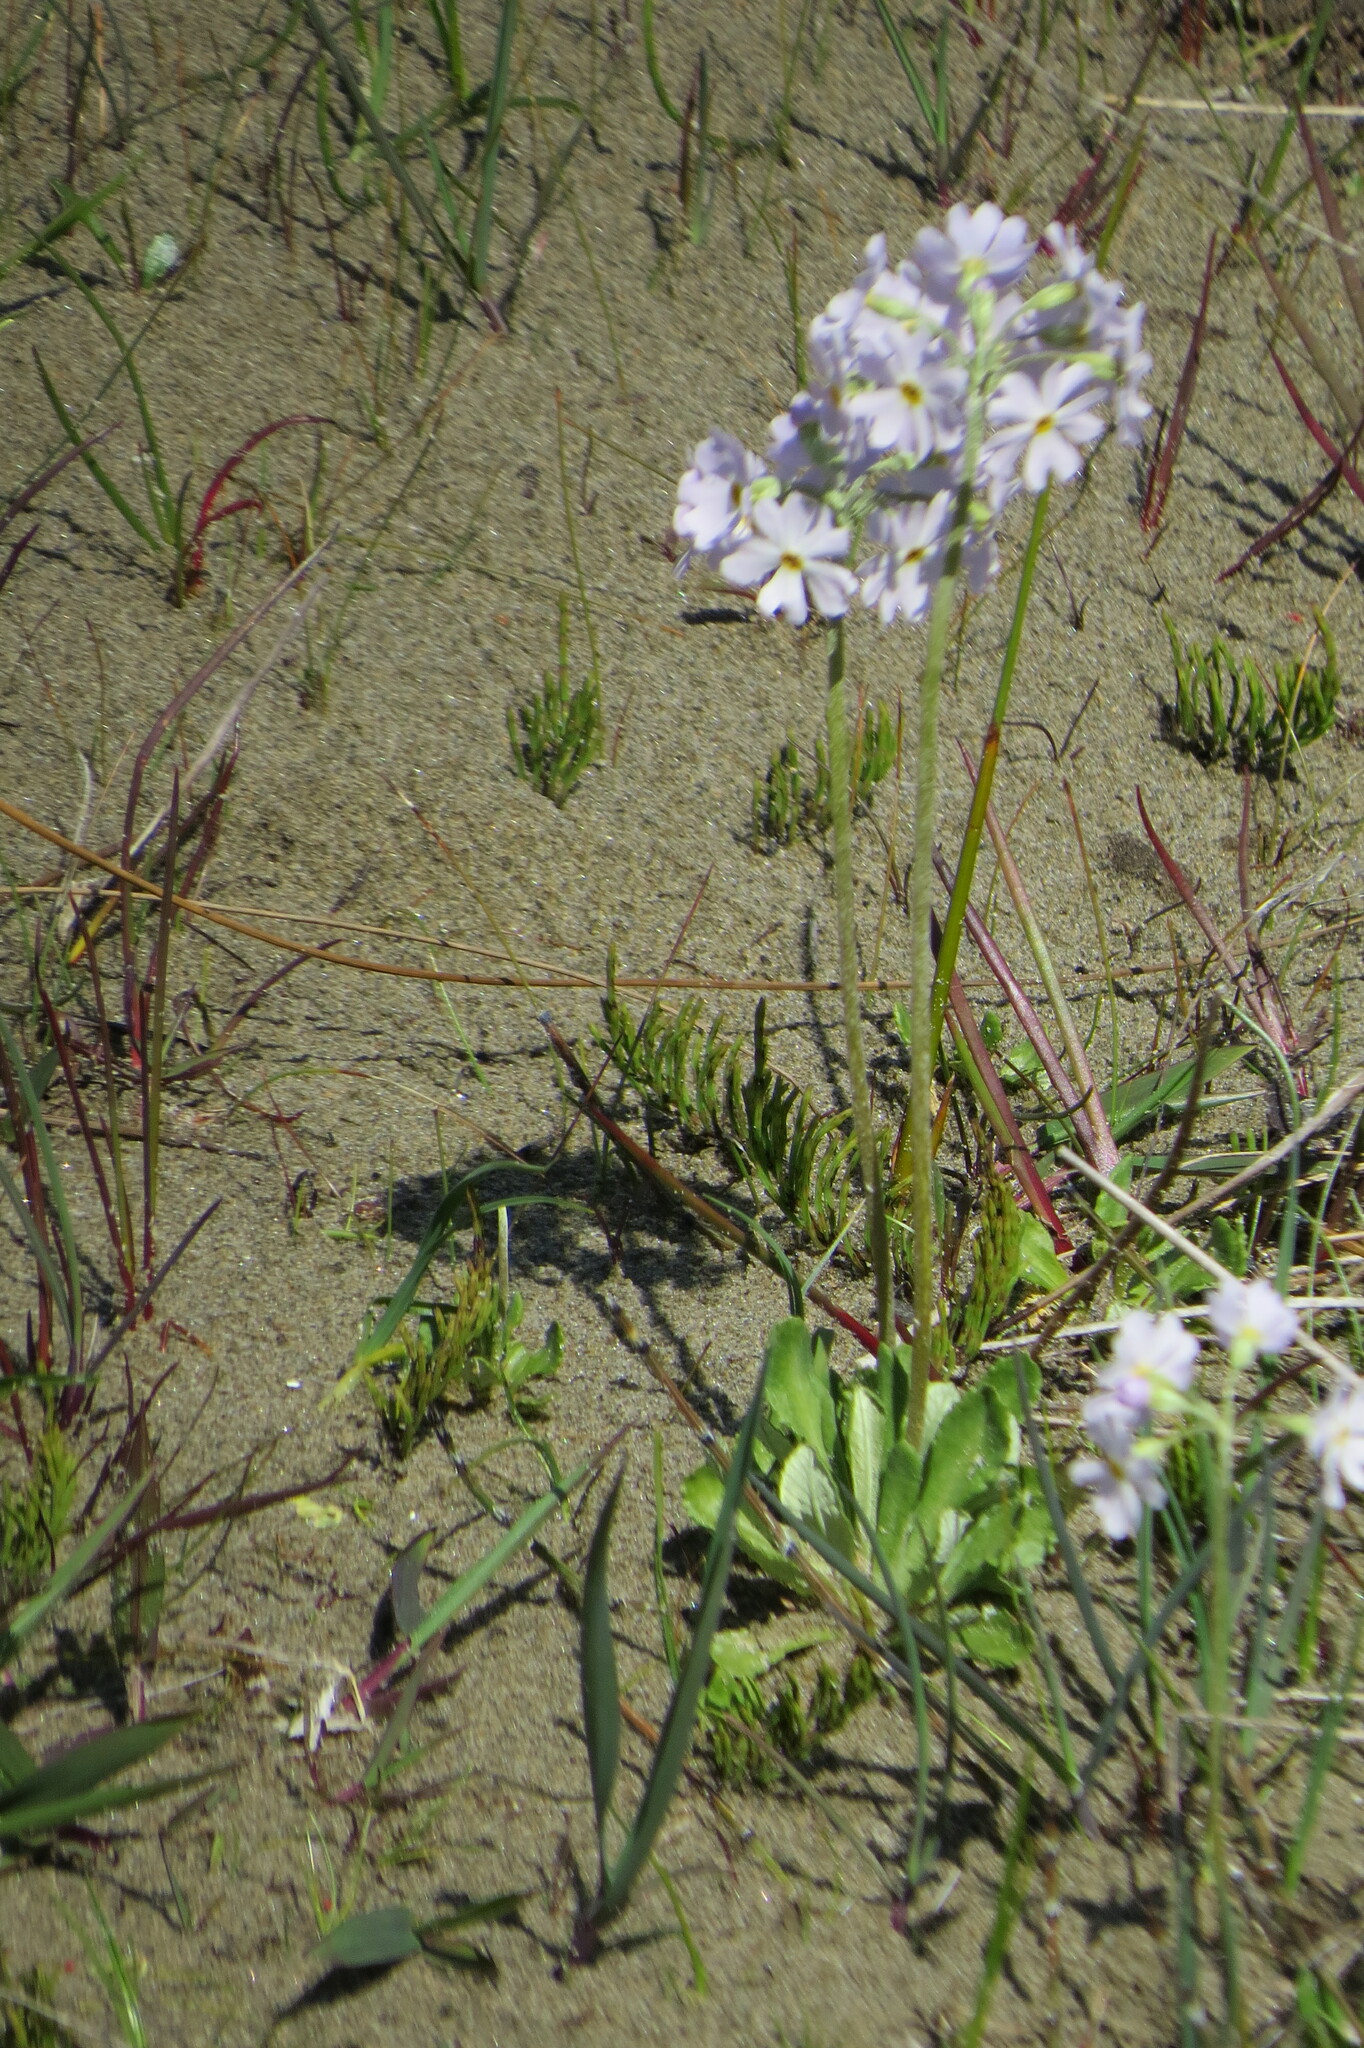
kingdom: Plantae
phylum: Tracheophyta
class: Magnoliopsida
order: Ericales
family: Primulaceae
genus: Primula
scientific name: Primula mistassinica
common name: Bird's-eye primrose
